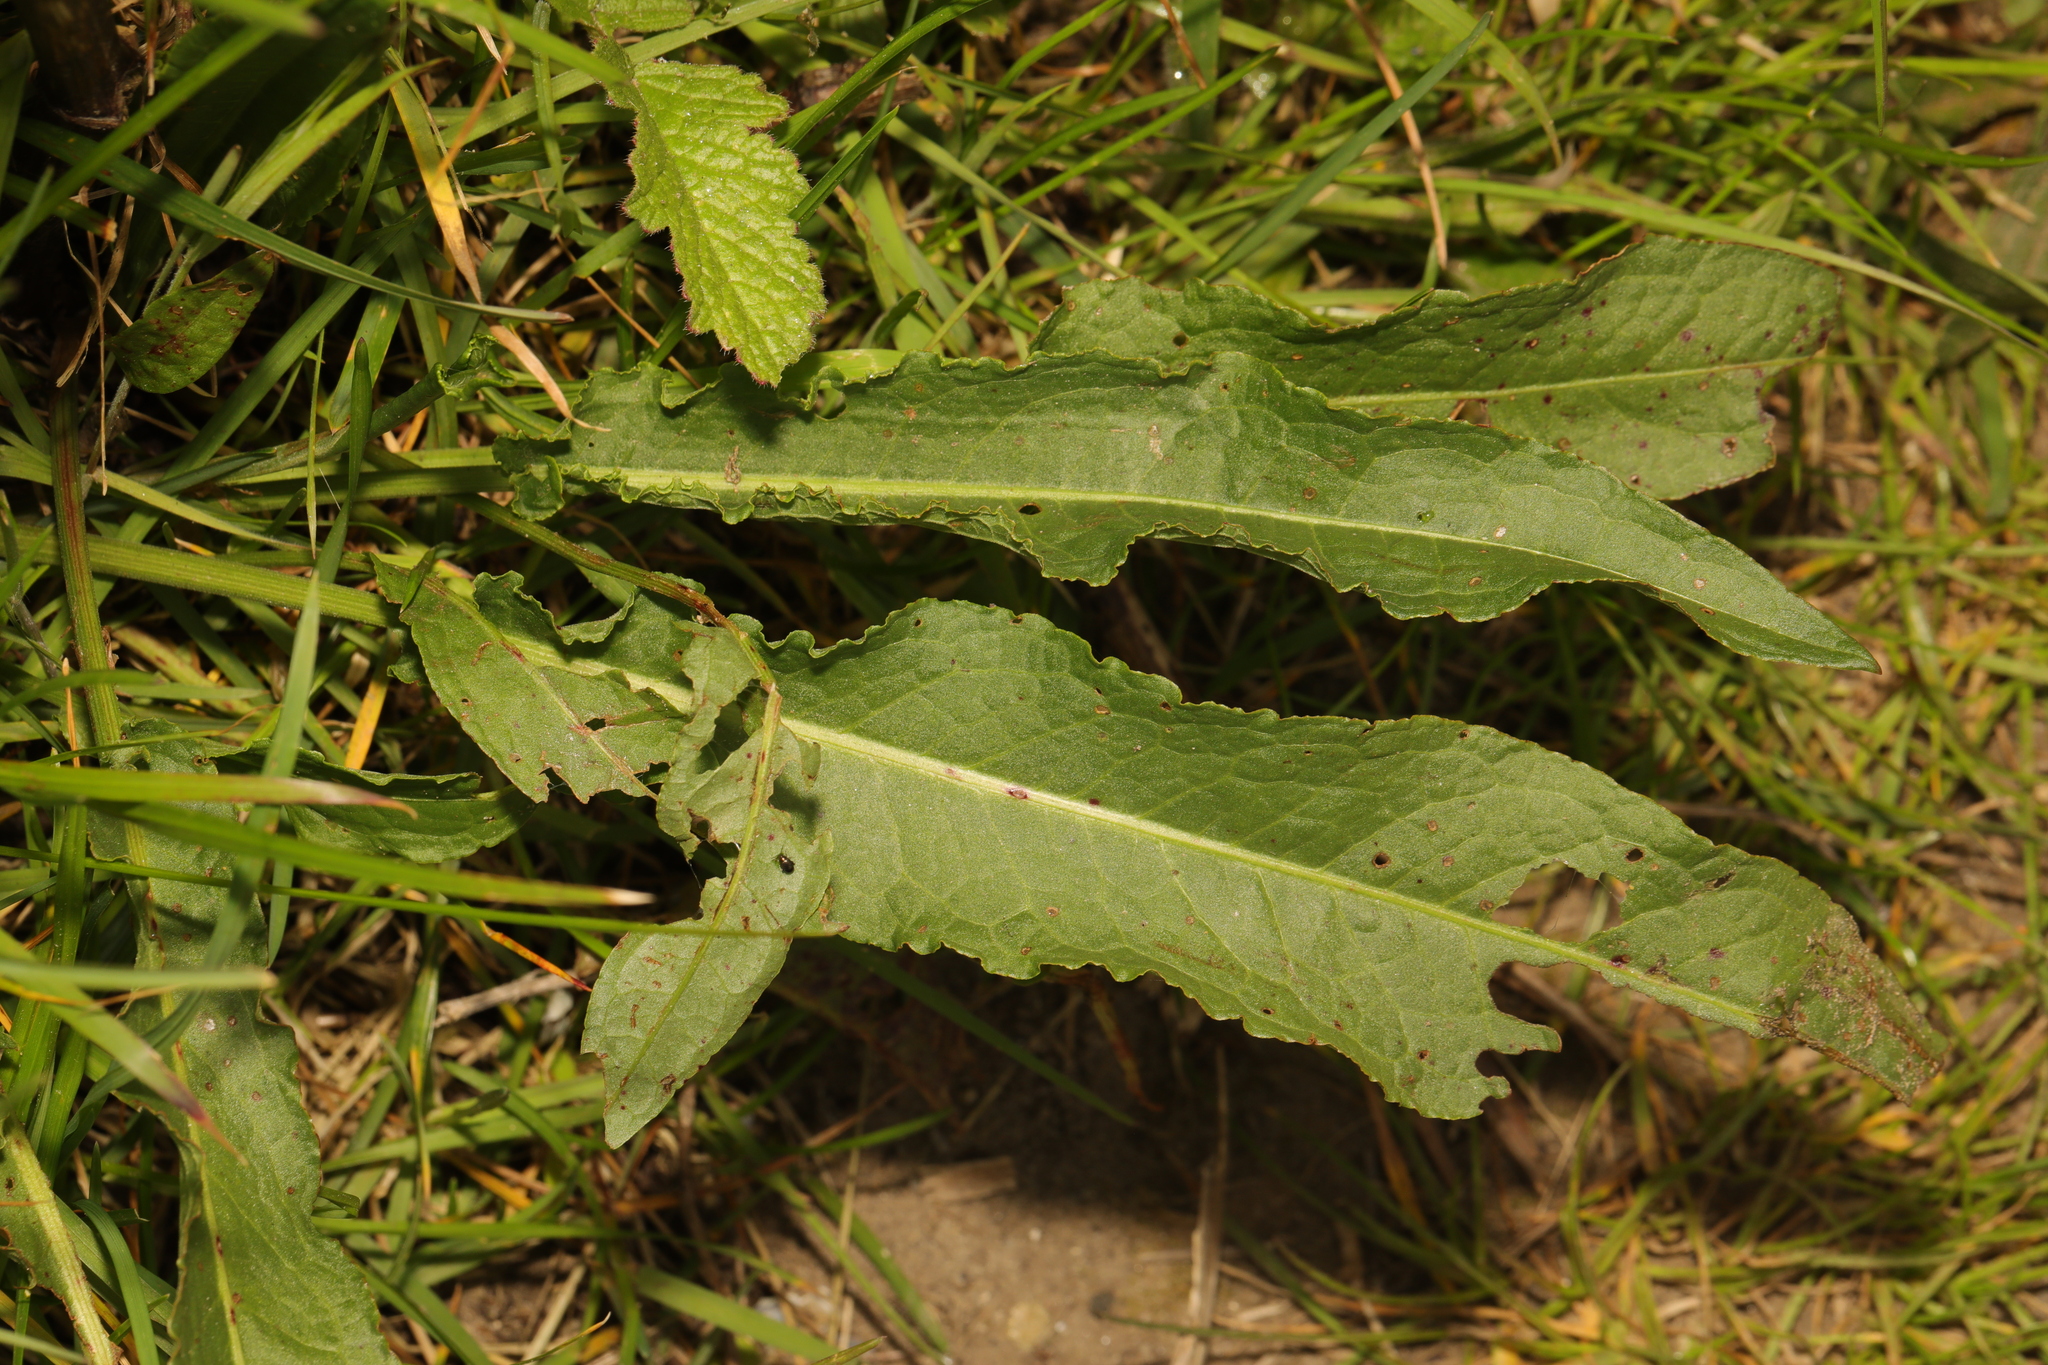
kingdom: Plantae
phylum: Tracheophyta
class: Magnoliopsida
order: Caryophyllales
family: Polygonaceae
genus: Rumex
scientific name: Rumex crispus
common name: Curled dock
